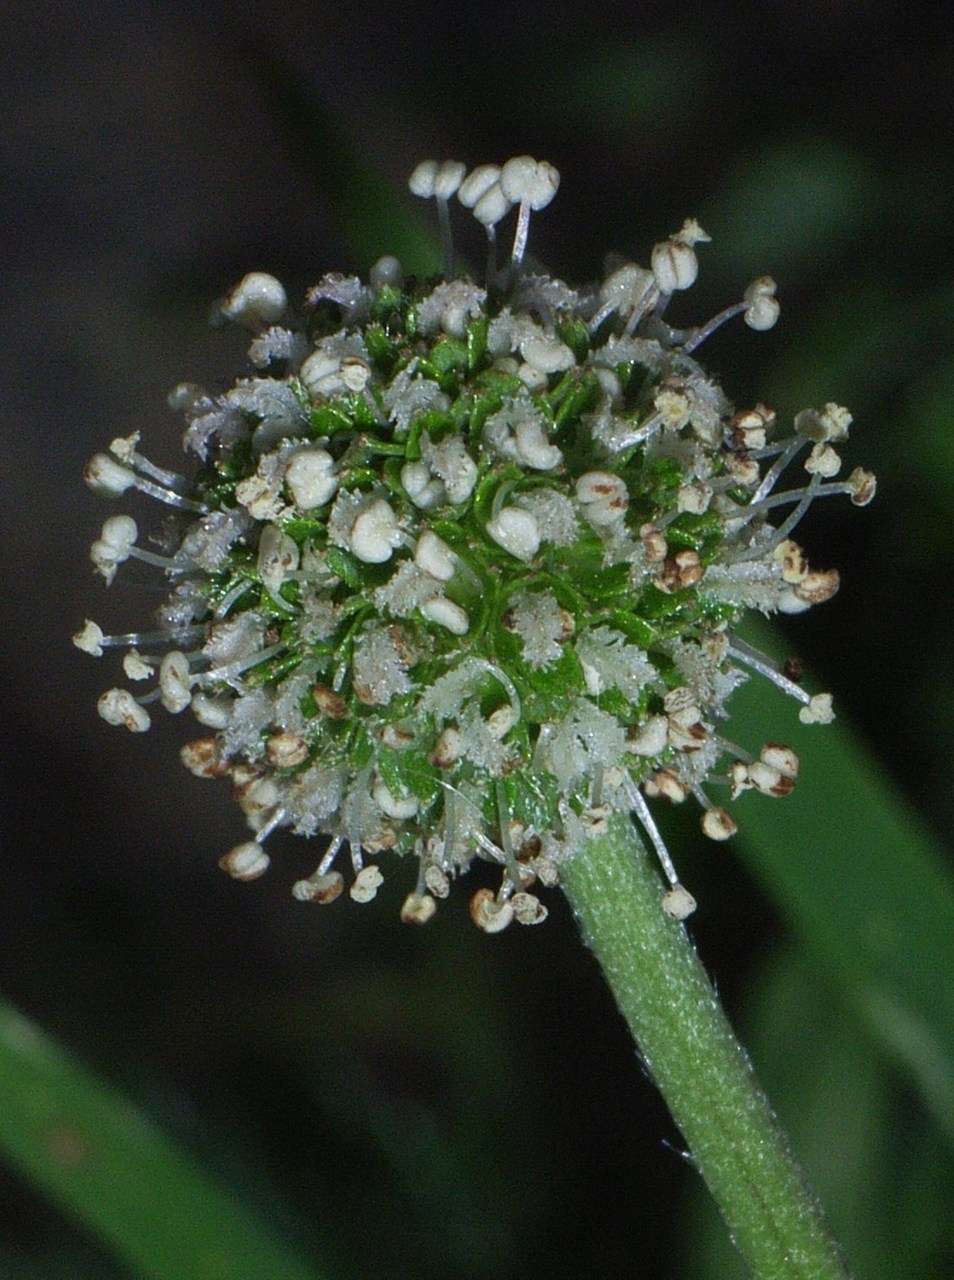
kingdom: Plantae
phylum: Tracheophyta
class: Magnoliopsida
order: Rosales
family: Rosaceae
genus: Acaena
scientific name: Acaena novae-zelandiae
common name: Pirri-pirri-bur
